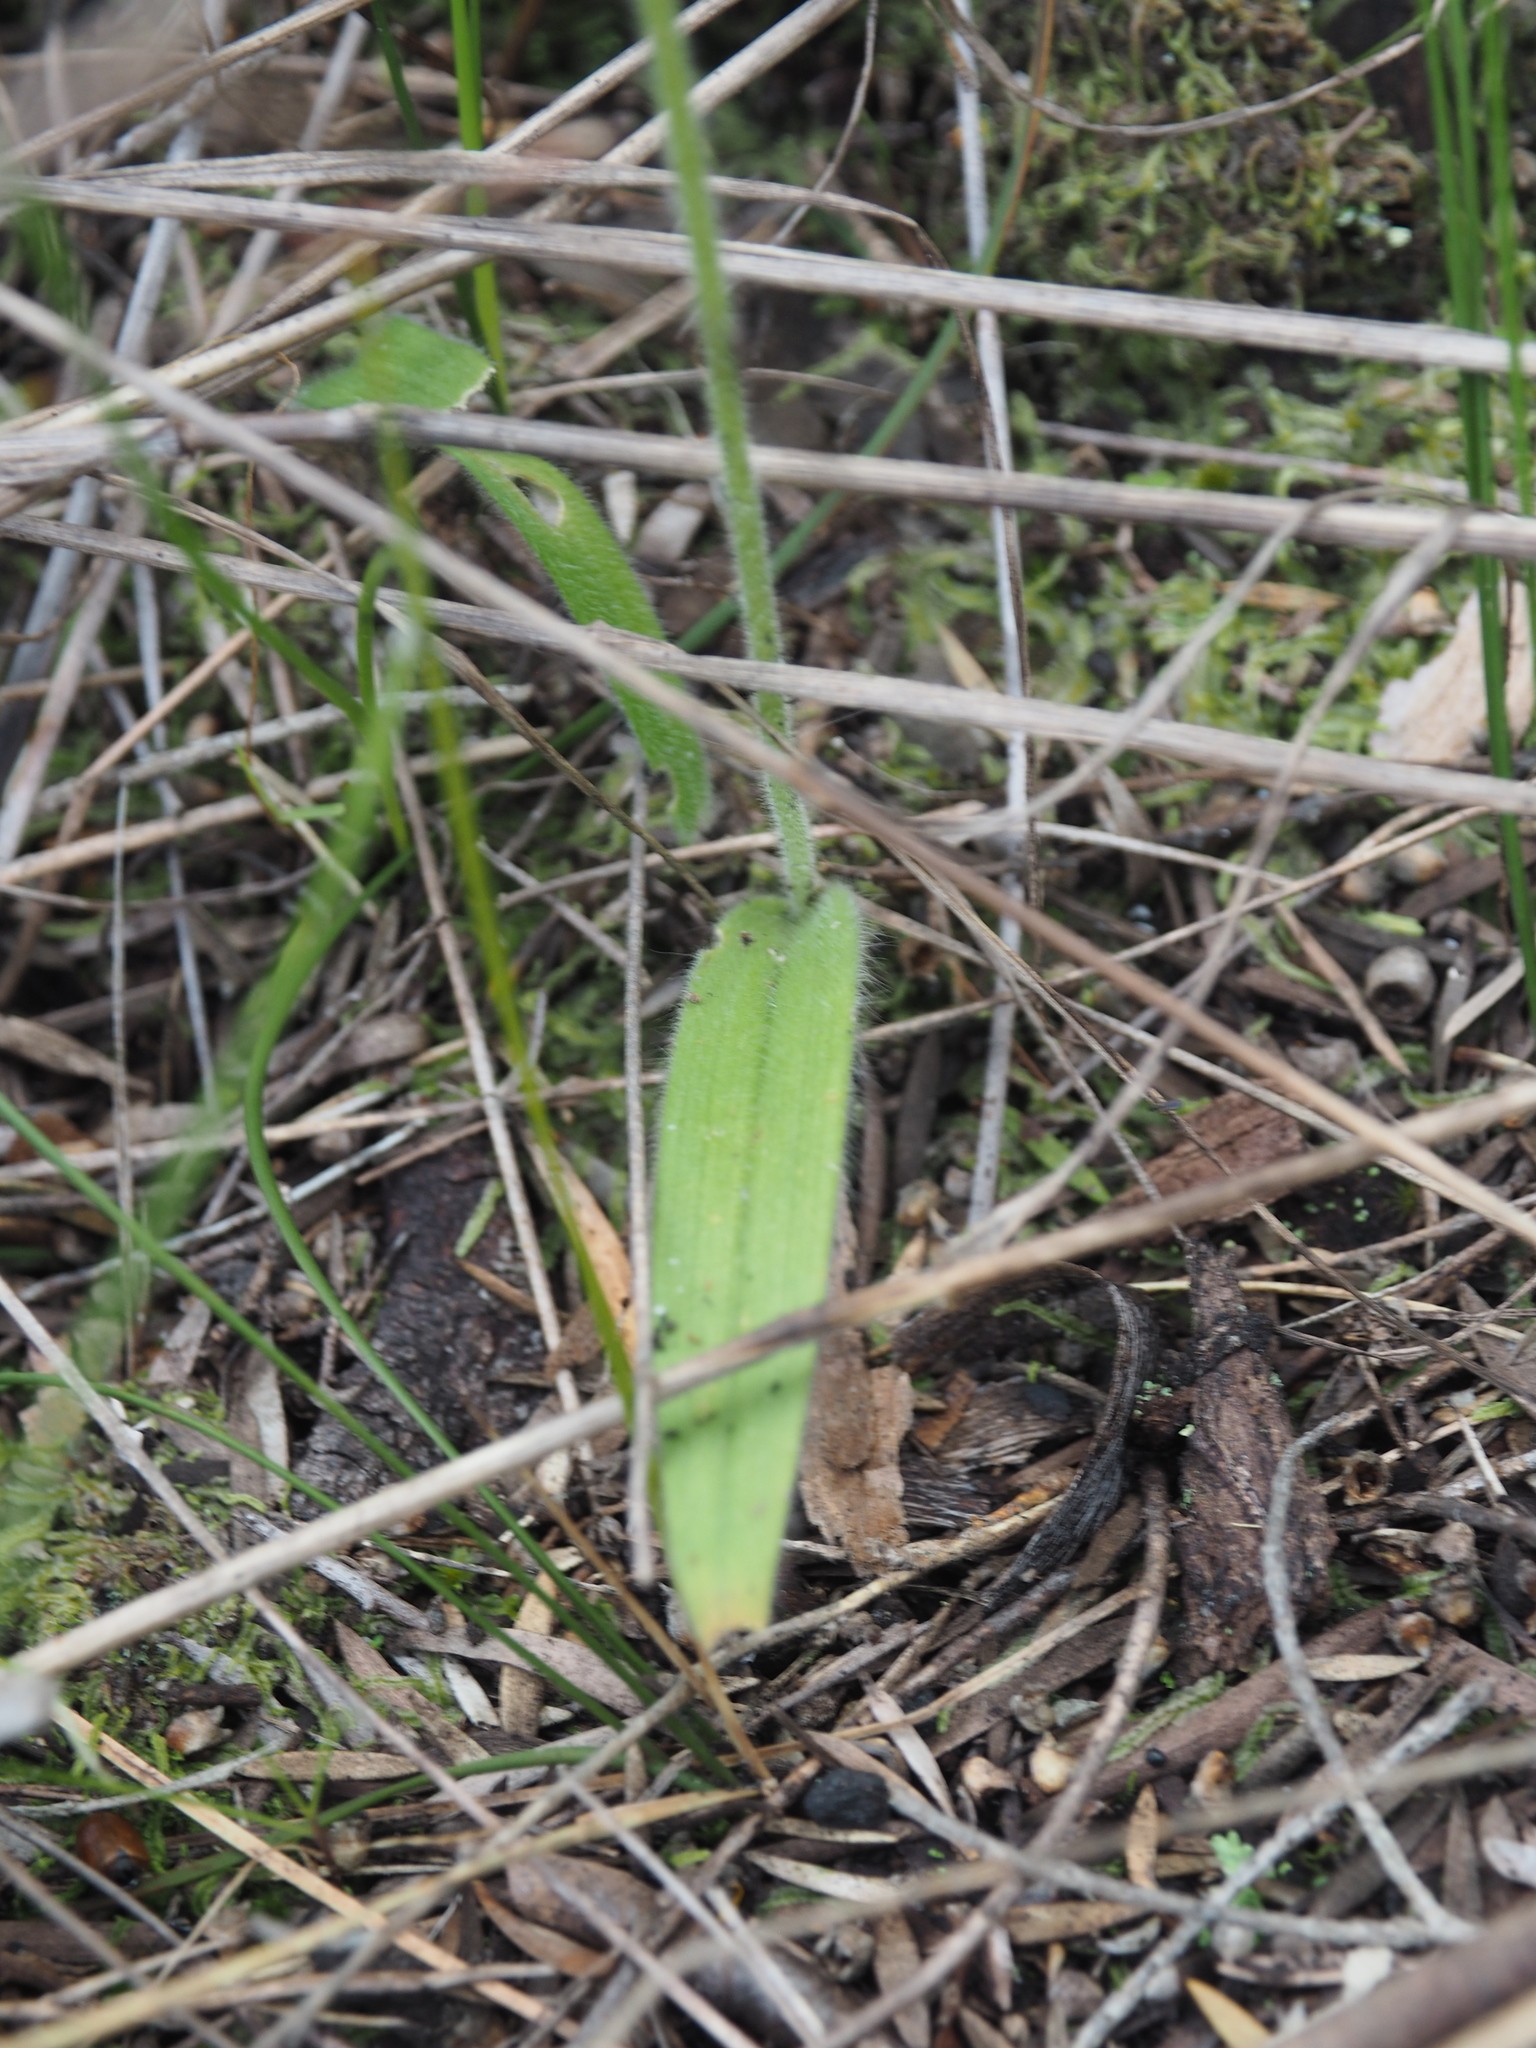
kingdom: Plantae
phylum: Tracheophyta
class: Liliopsida
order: Asparagales
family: Orchidaceae
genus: Caladenia
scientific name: Caladenia latifolia
